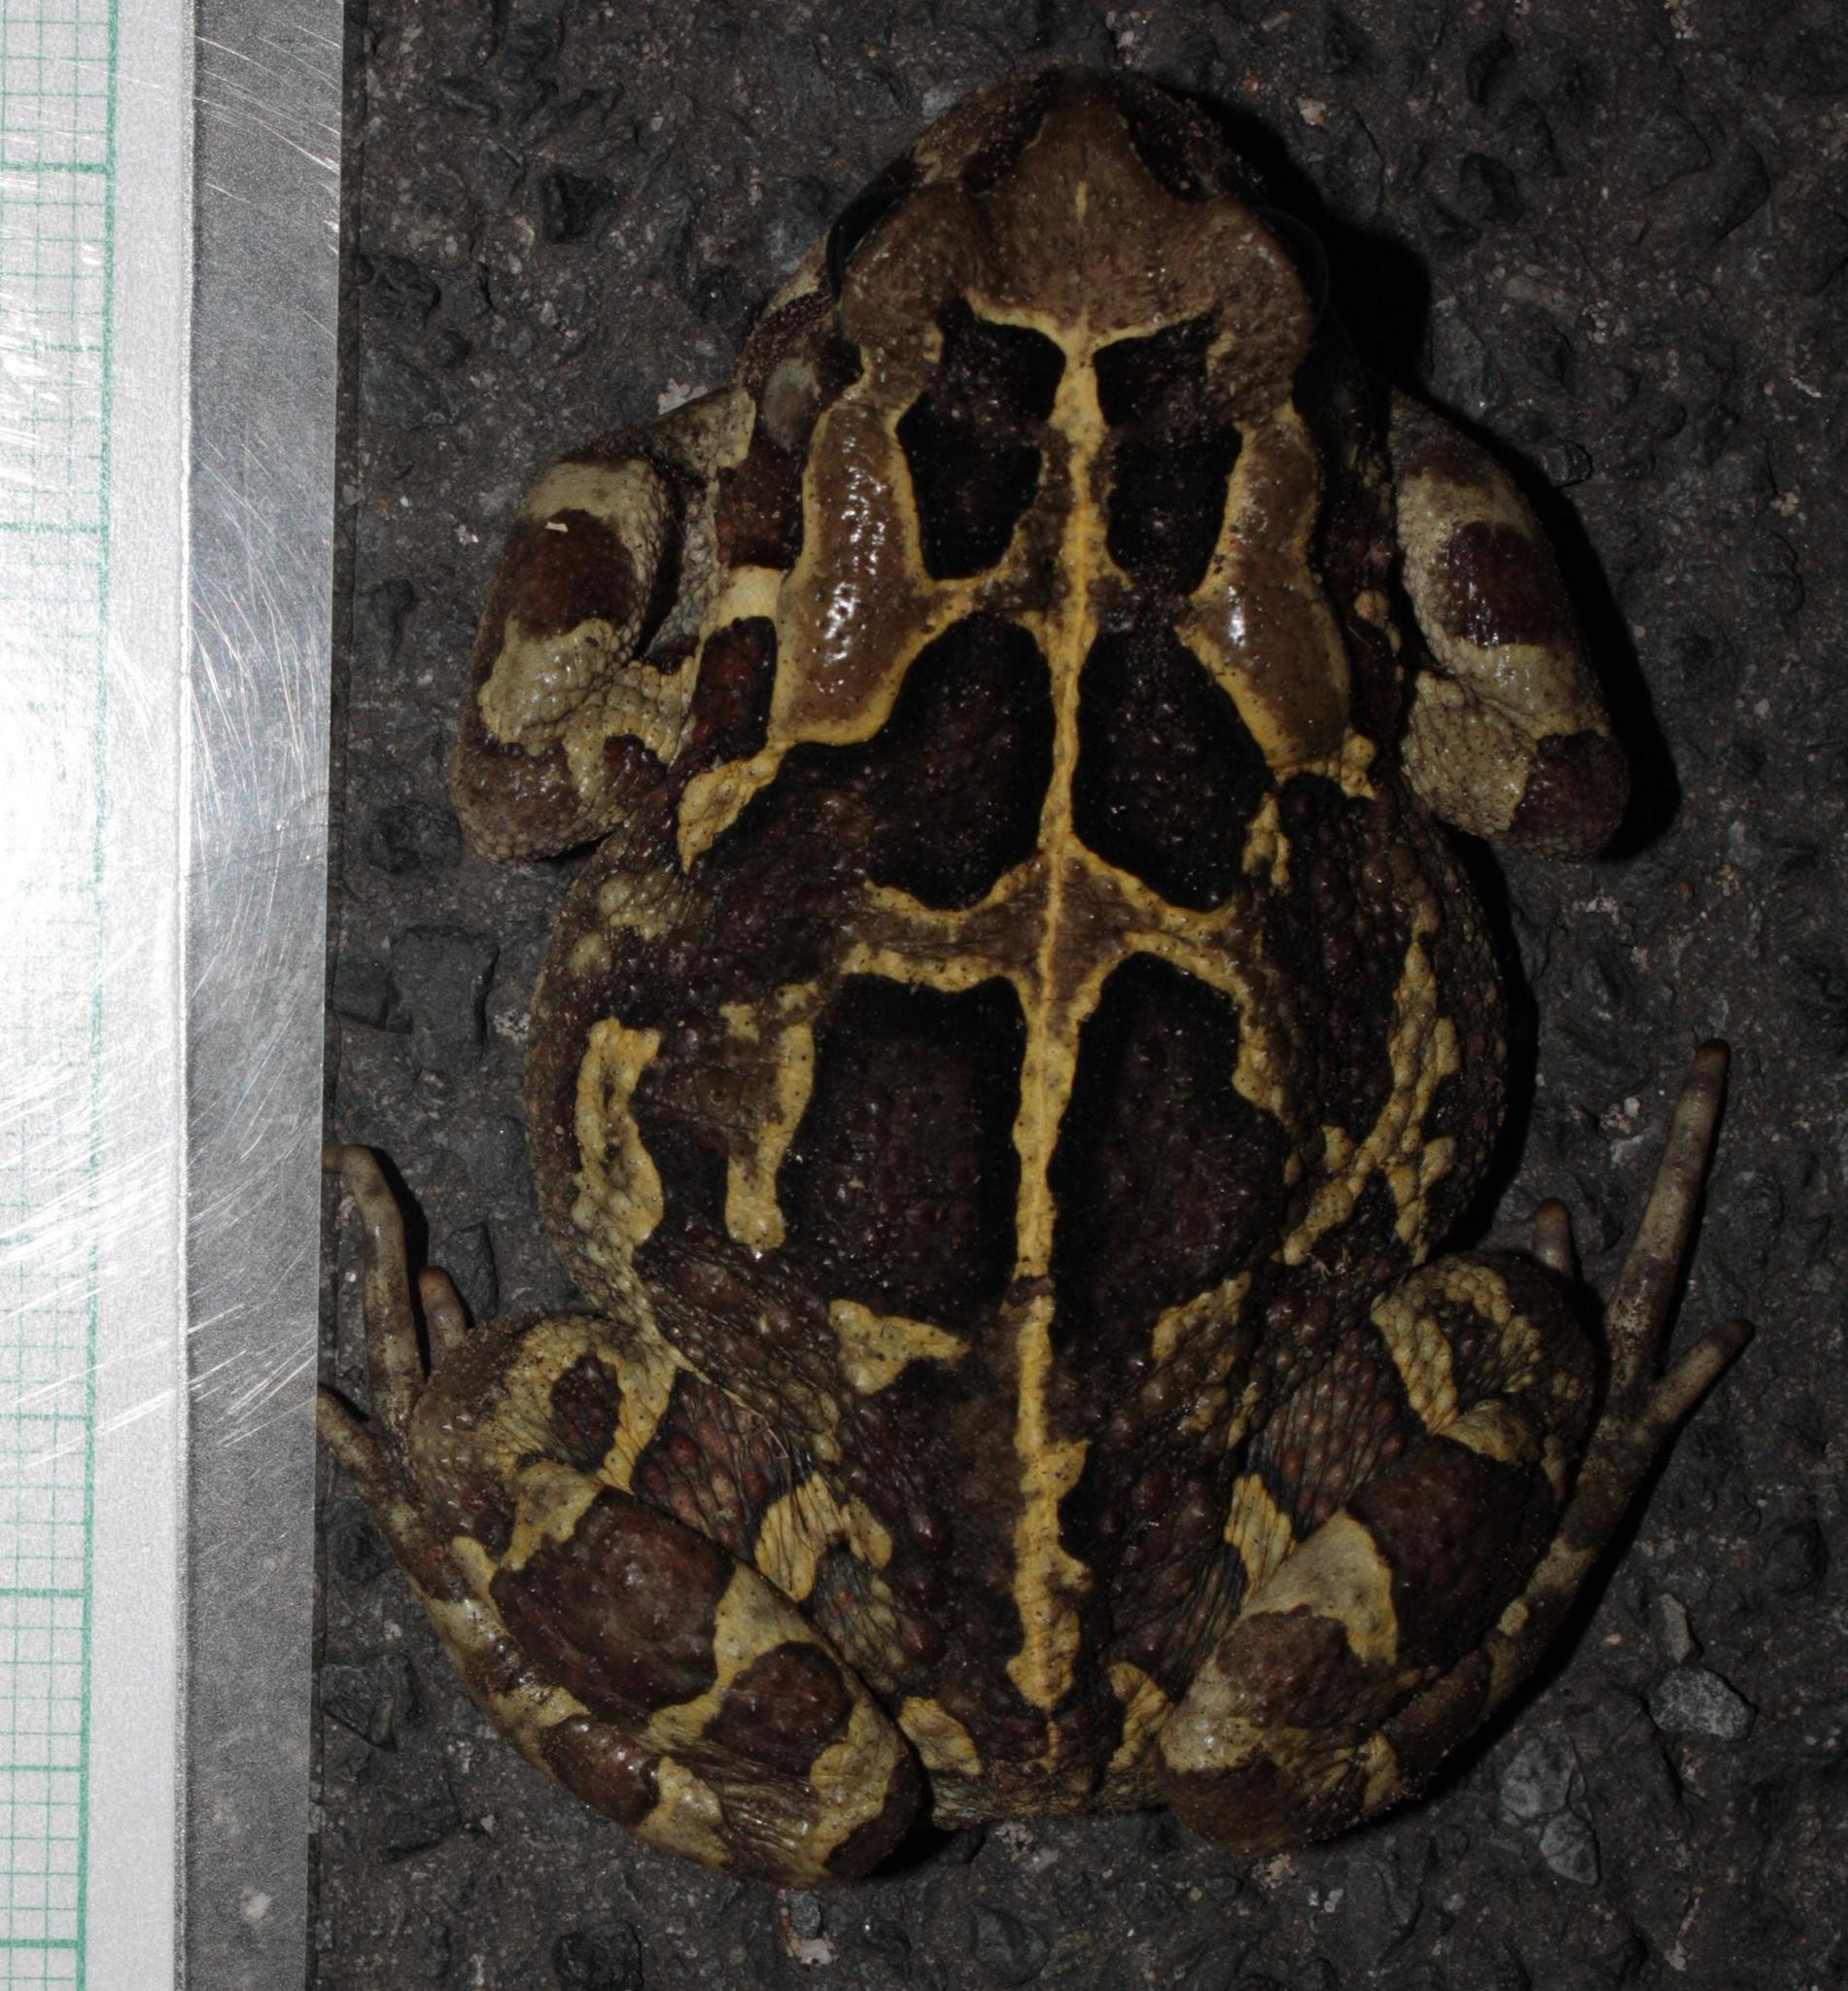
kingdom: Animalia
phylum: Chordata
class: Amphibia
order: Anura
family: Bufonidae
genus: Sclerophrys
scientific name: Sclerophrys pantherina
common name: Panther toad
